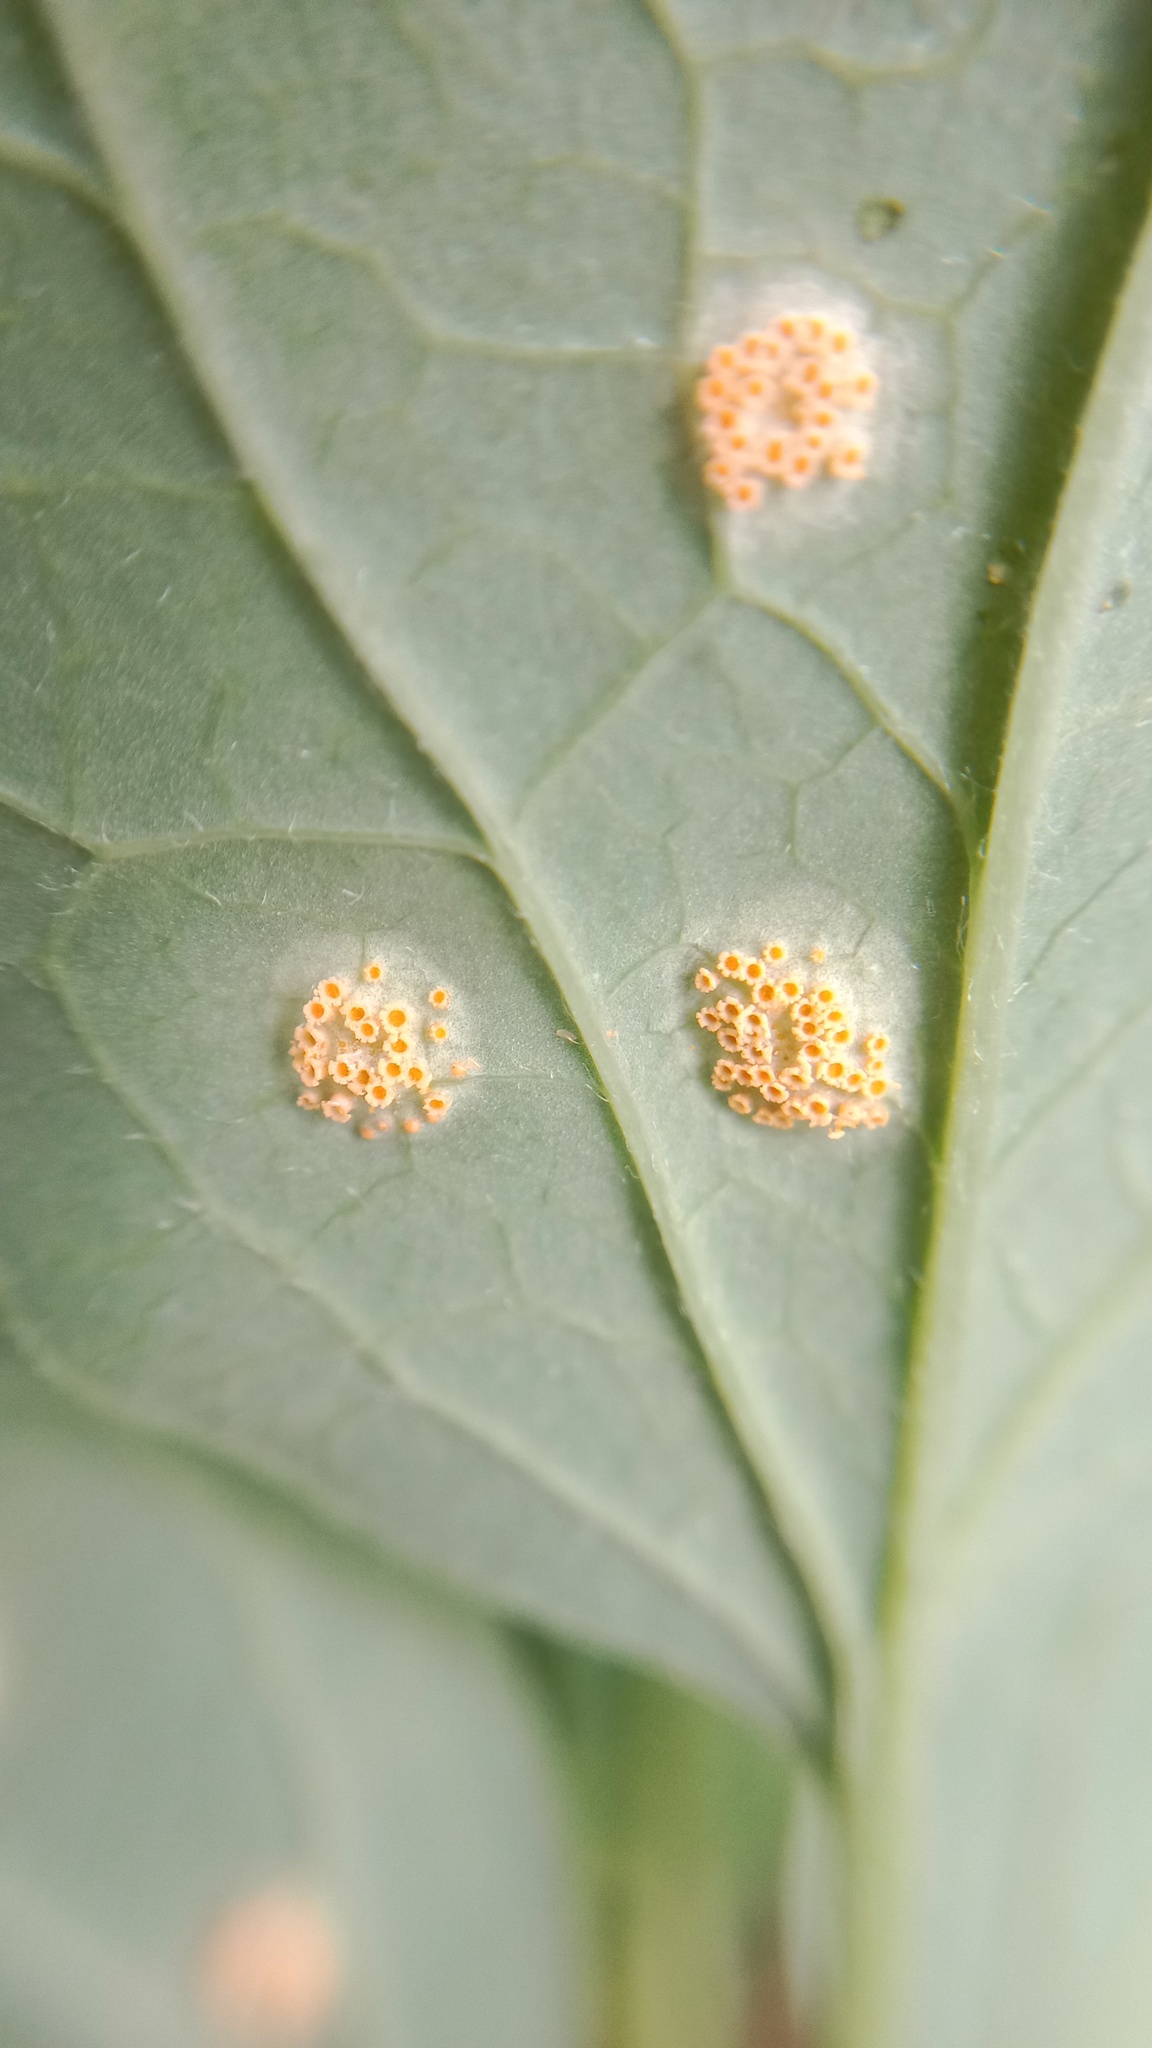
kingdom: Fungi
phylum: Basidiomycota
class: Pucciniomycetes
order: Pucciniales
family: Pucciniaceae
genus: Puccinia
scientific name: Puccinia clematidis
